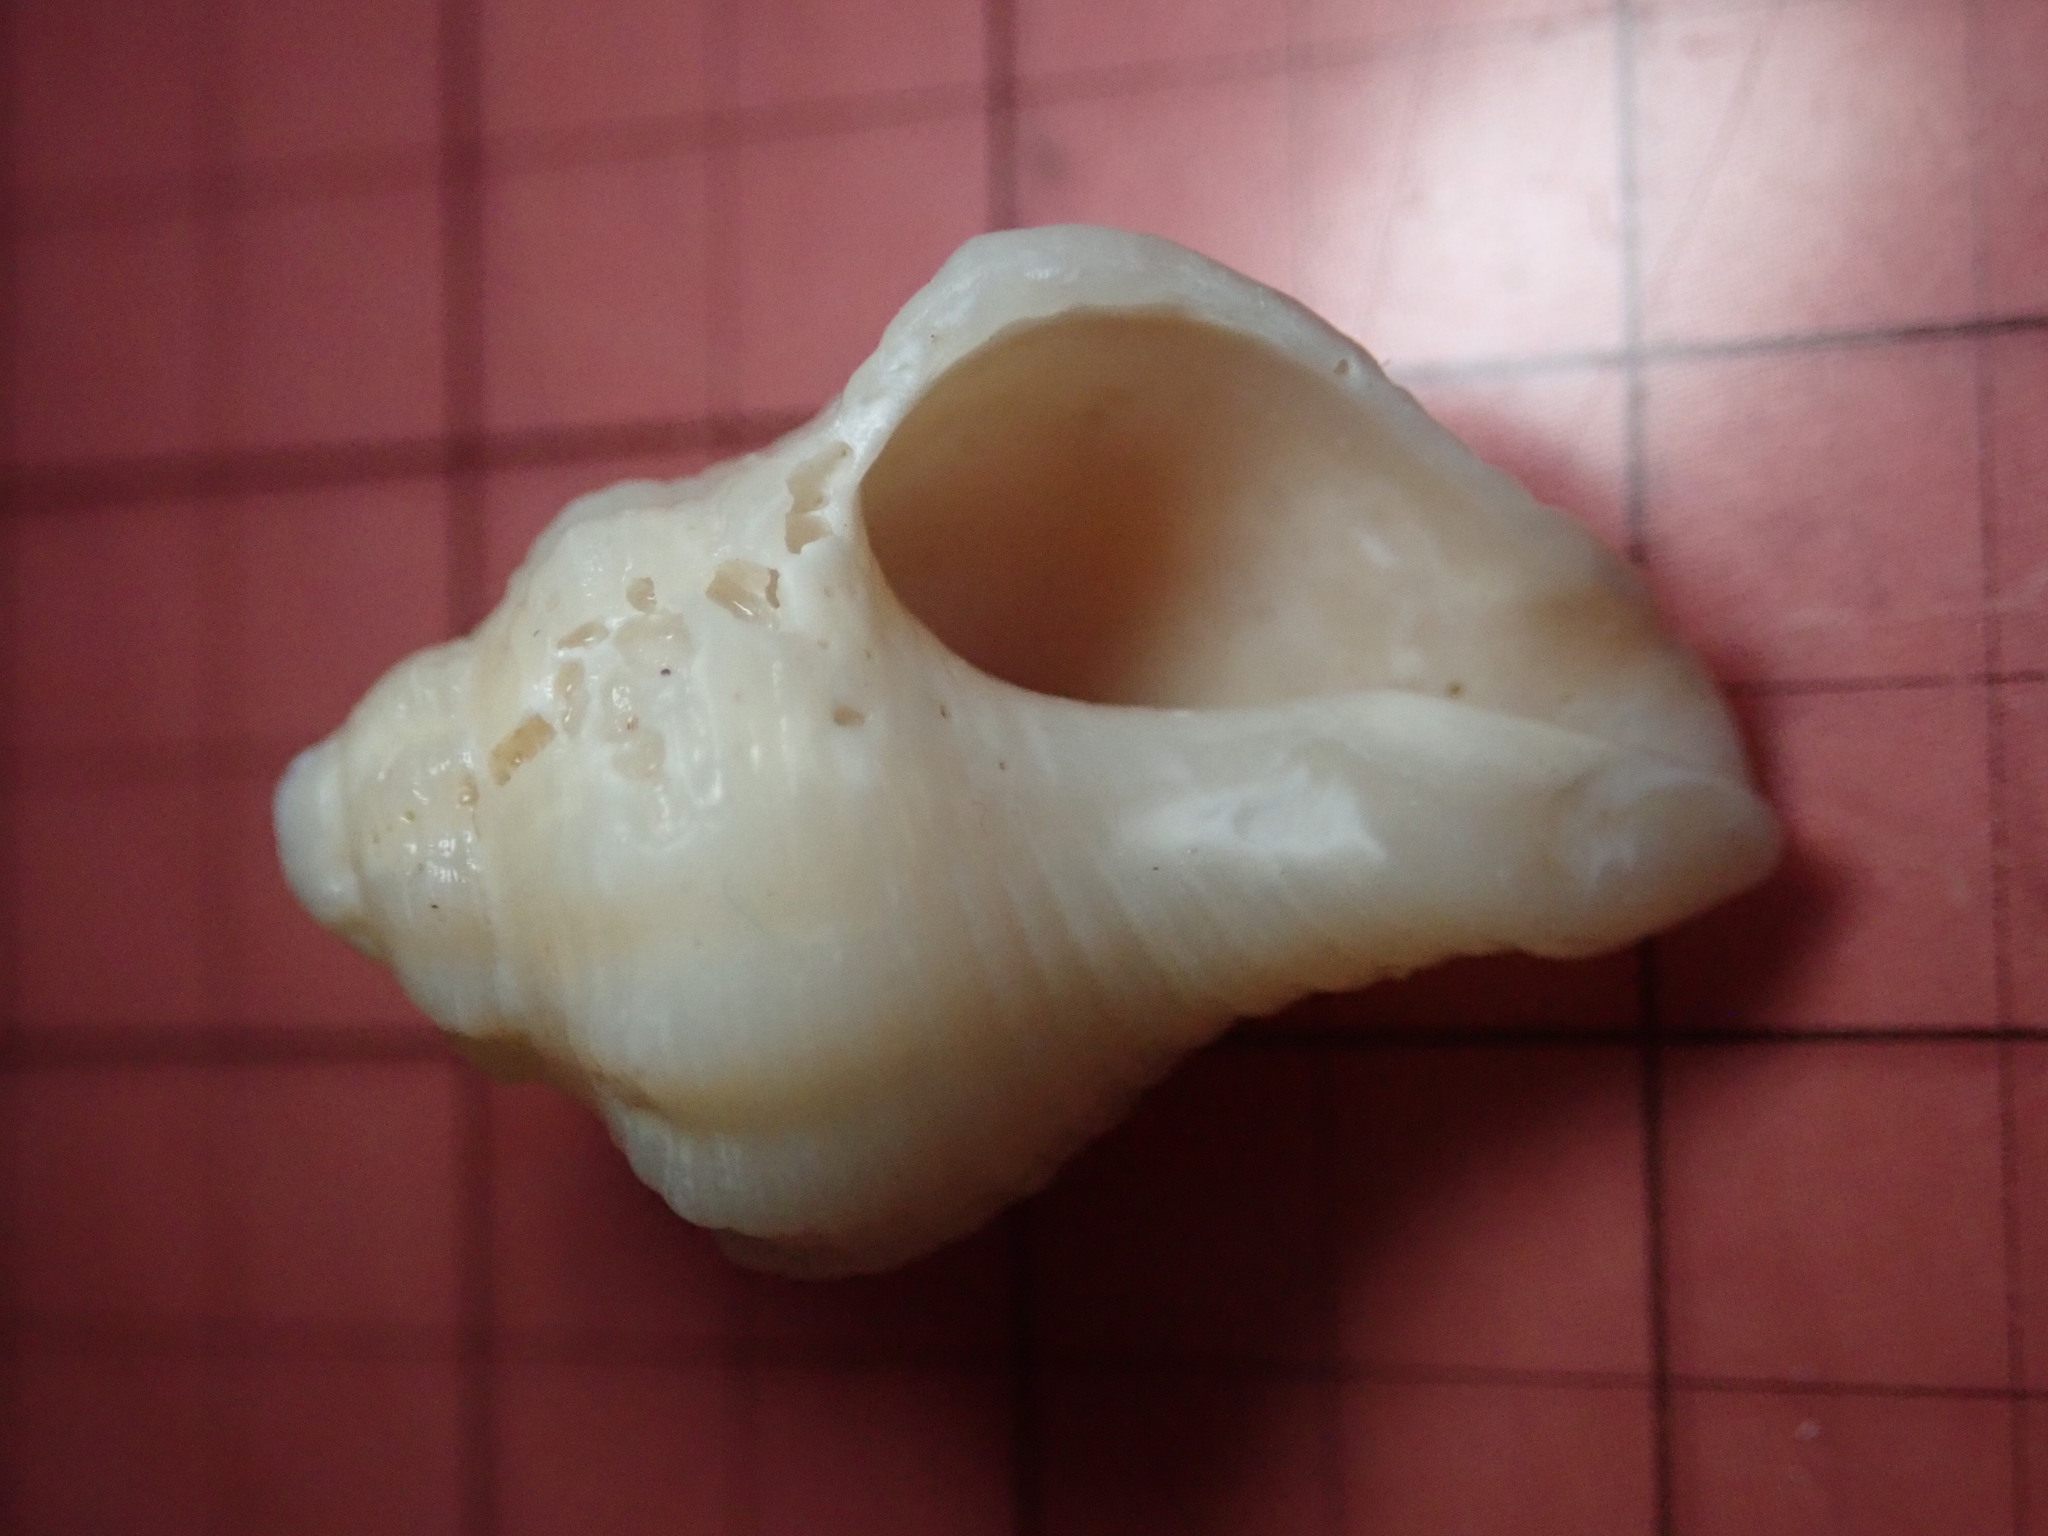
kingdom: Animalia
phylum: Mollusca
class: Gastropoda
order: Neogastropoda
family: Pisaniidae
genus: Solenosteira
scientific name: Solenosteira macrospira
